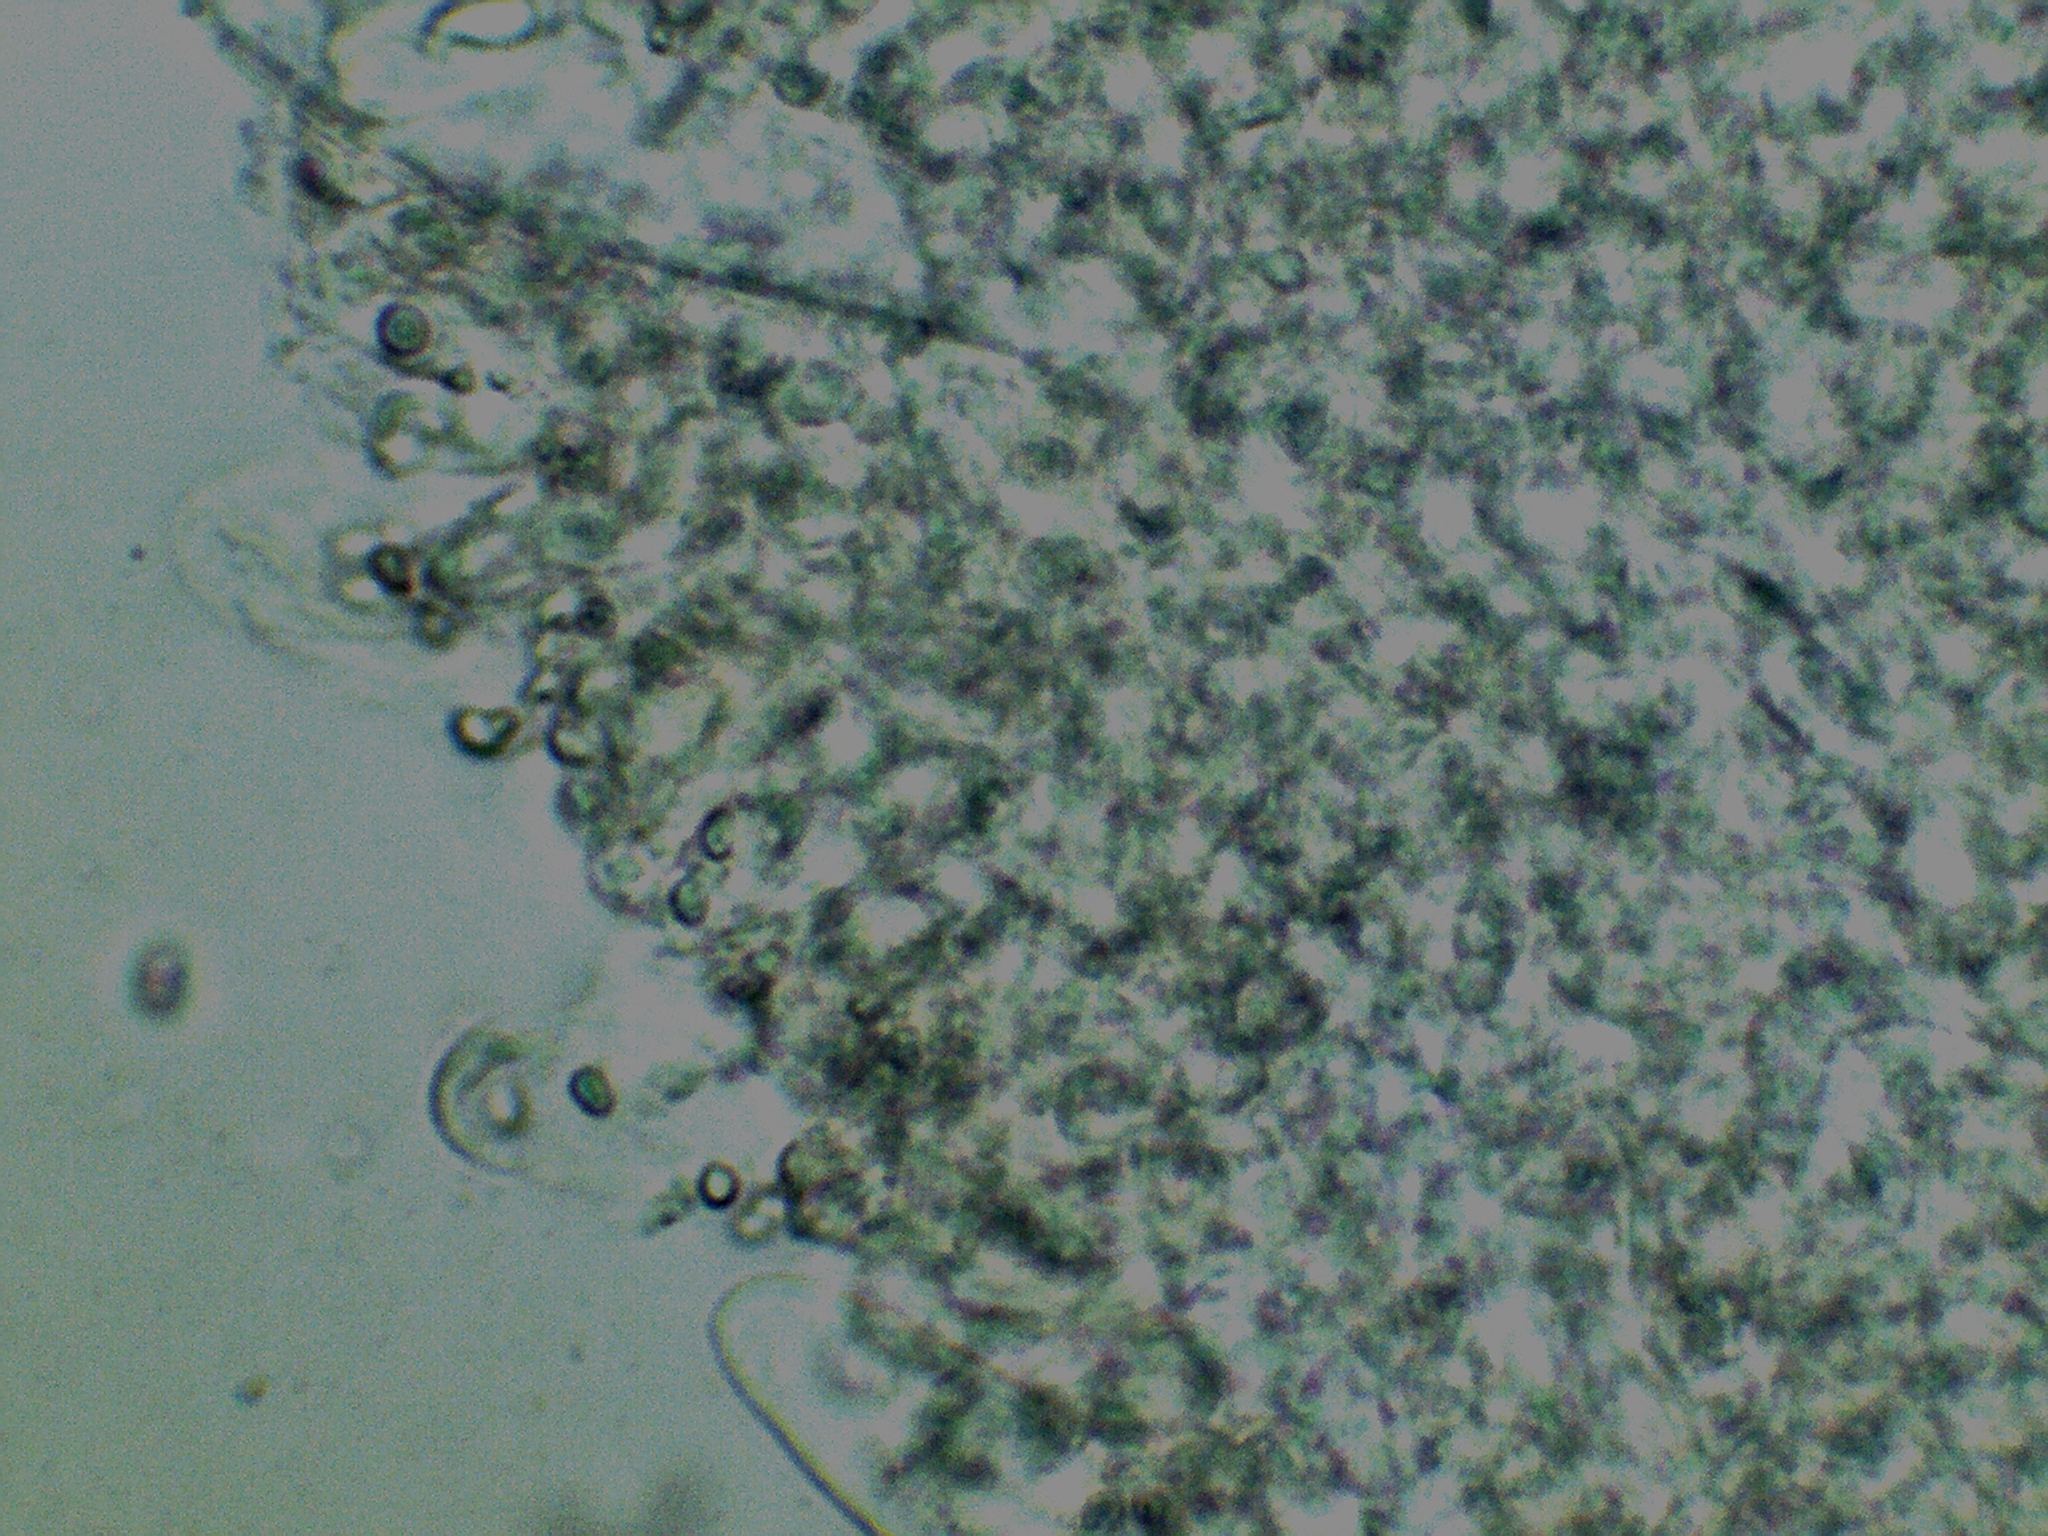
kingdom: Fungi
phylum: Basidiomycota
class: Agaricomycetes
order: Agaricales
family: Mycenaceae
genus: Mycena
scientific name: Mycena pura
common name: Lilac bonnet
